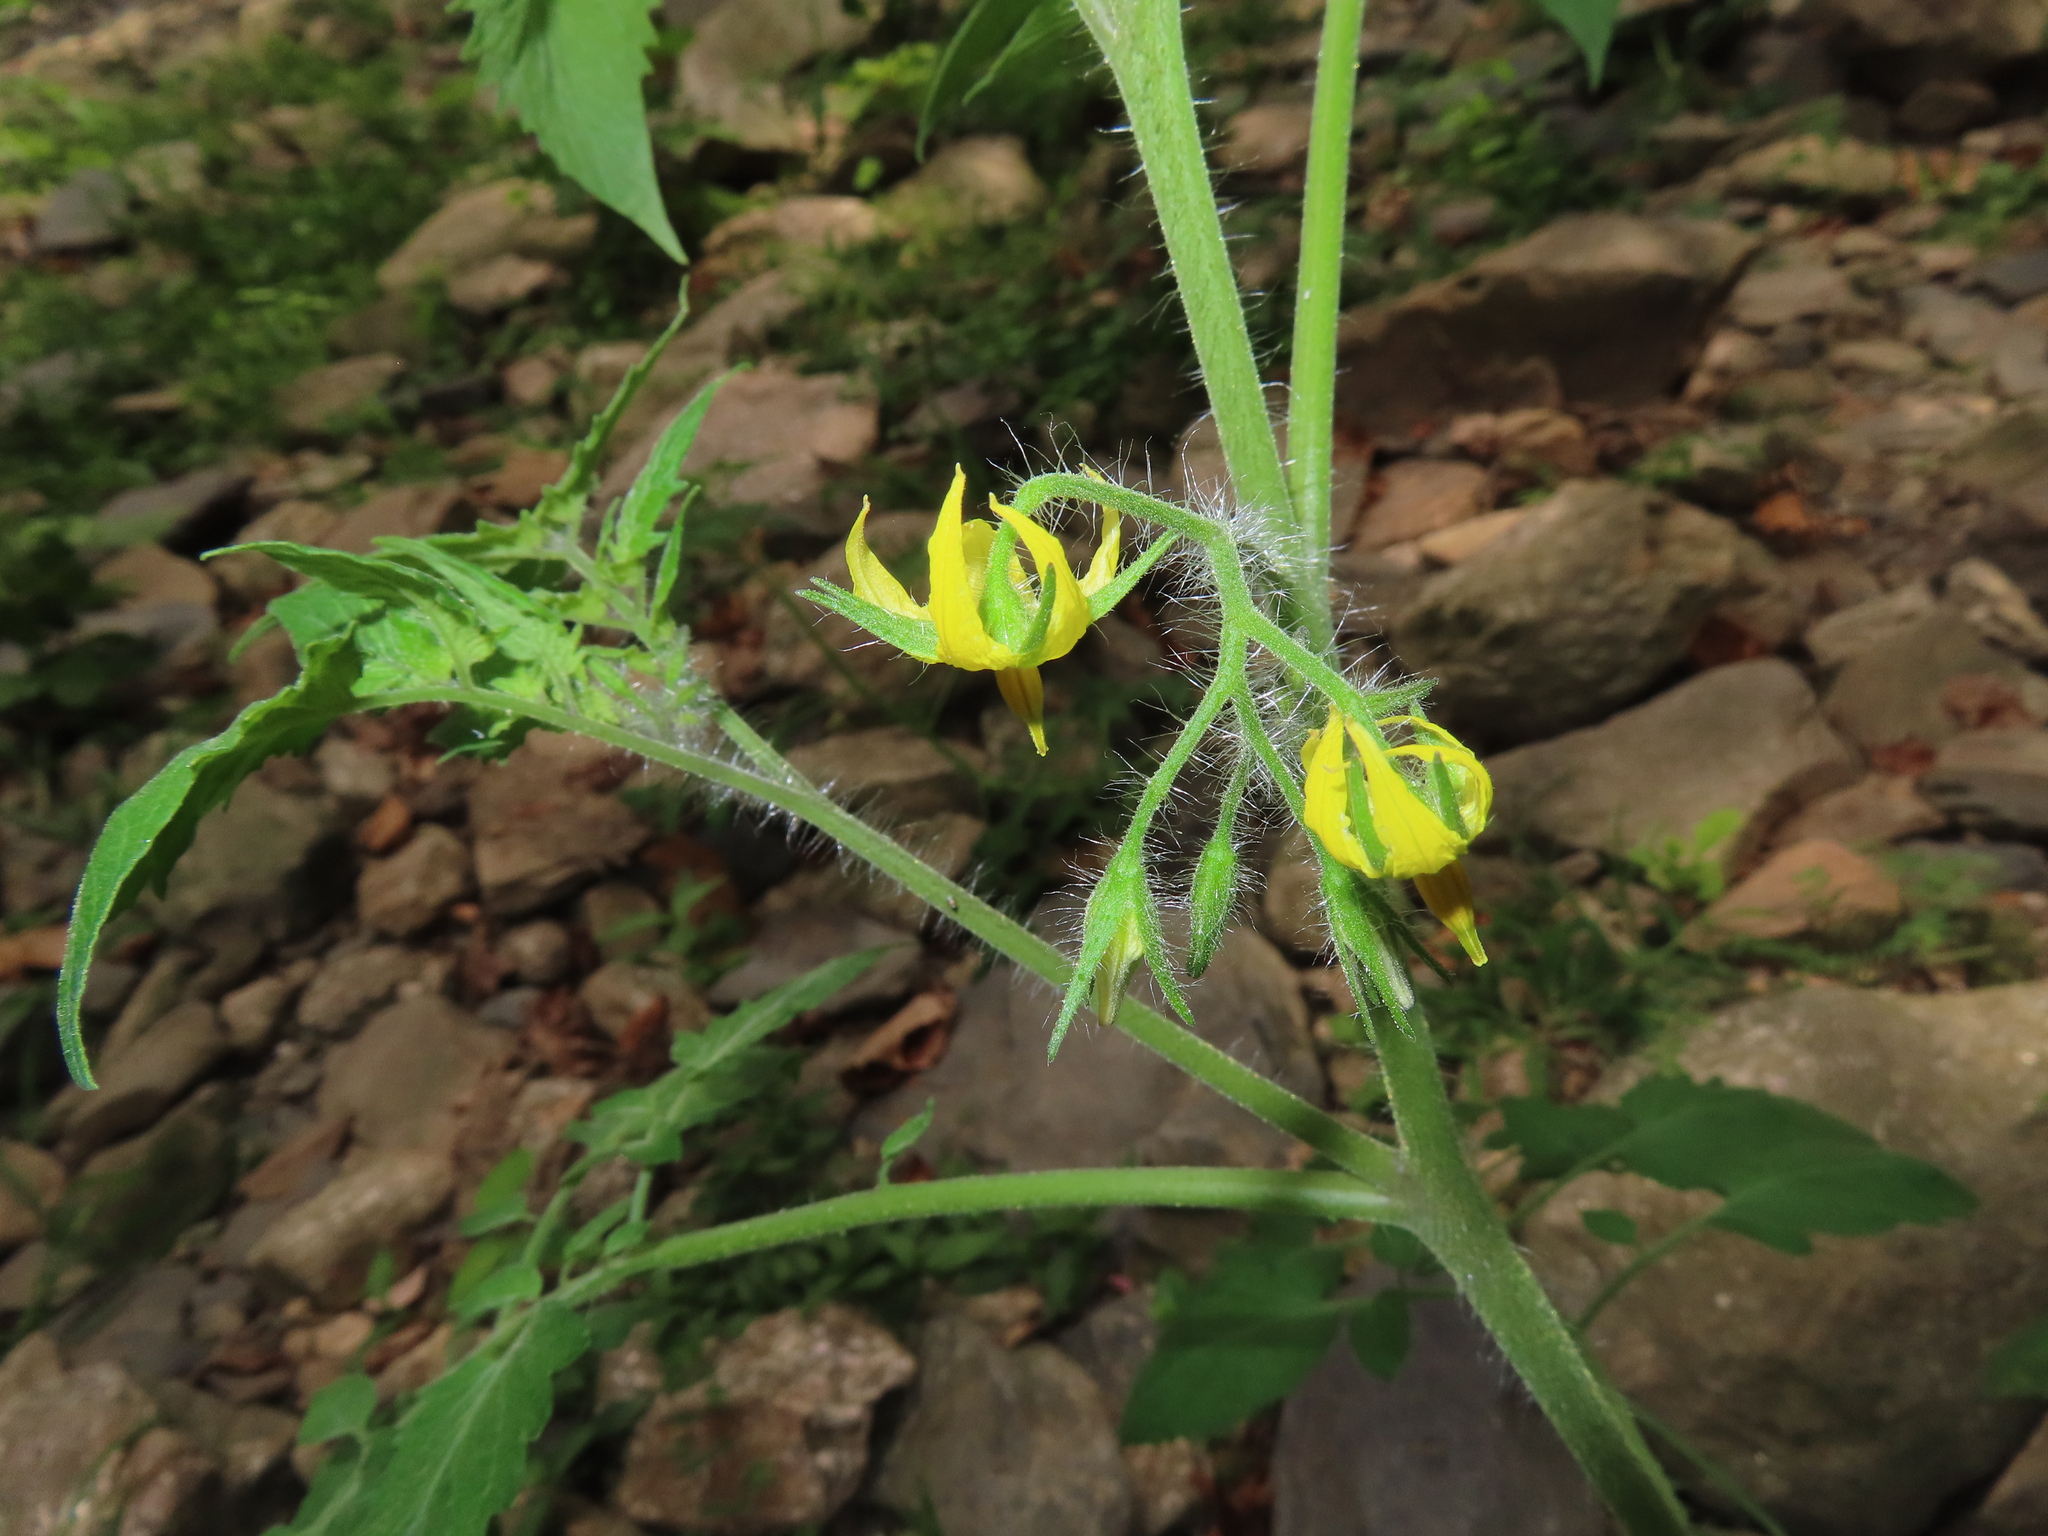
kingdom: Plantae
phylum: Tracheophyta
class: Magnoliopsida
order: Asterales
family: Asteraceae
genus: Galinsoga
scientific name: Galinsoga quadriradiata
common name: Shaggy soldier
